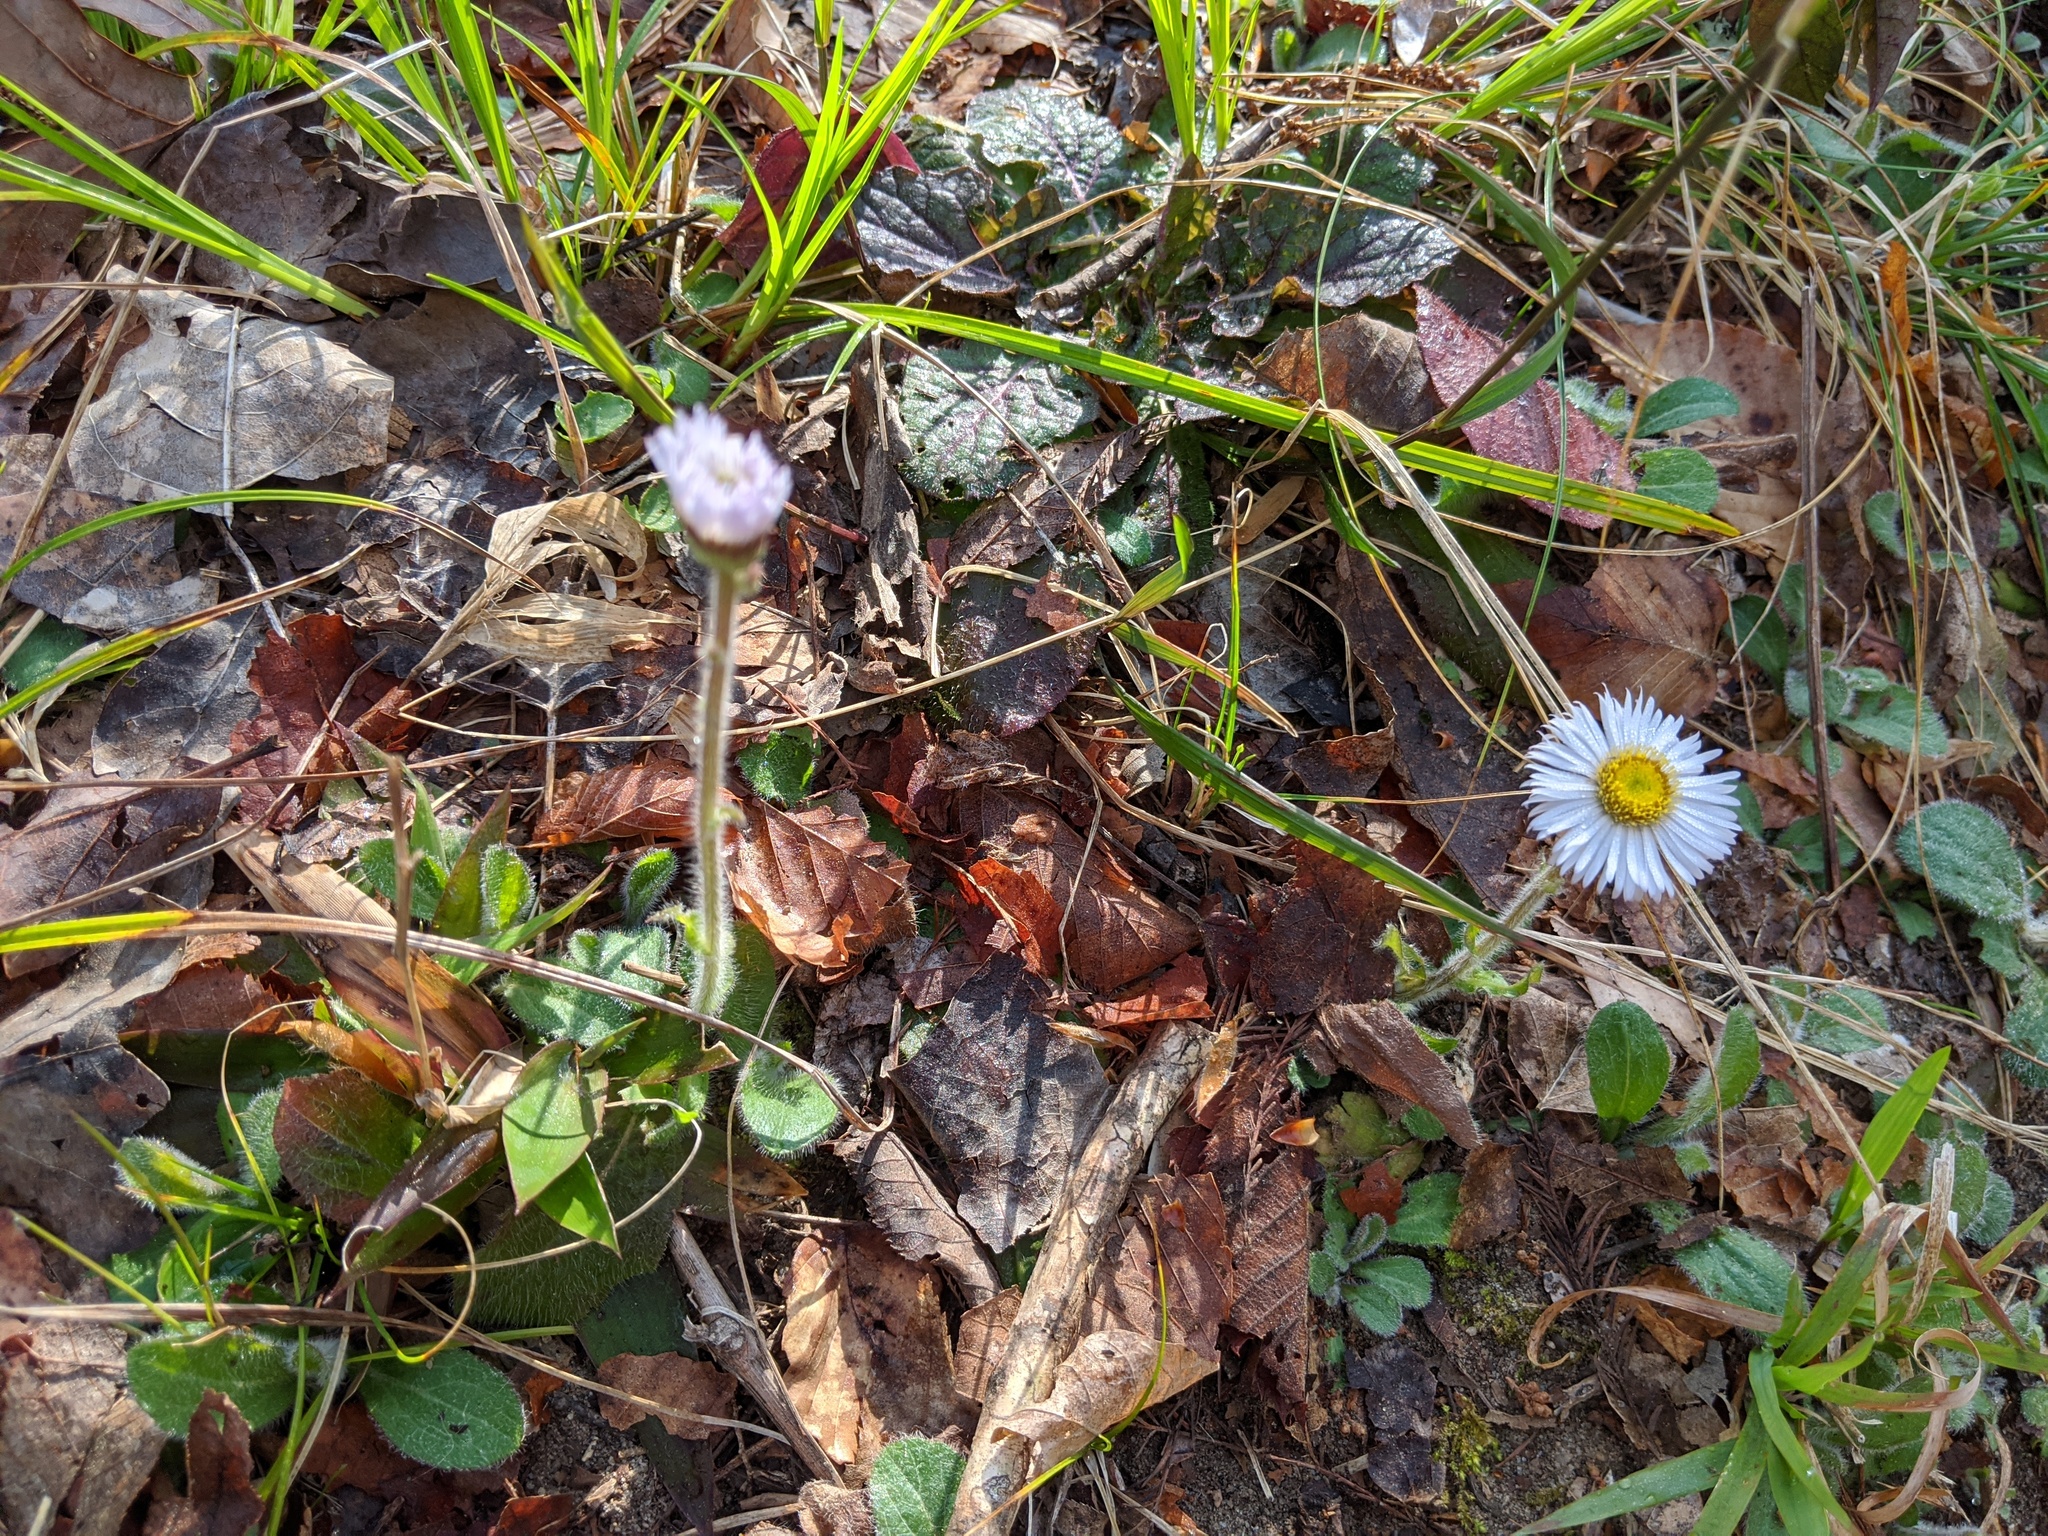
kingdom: Plantae
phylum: Tracheophyta
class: Magnoliopsida
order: Asterales
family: Asteraceae
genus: Erigeron
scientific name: Erigeron pulchellus
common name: Hairy fleabane
